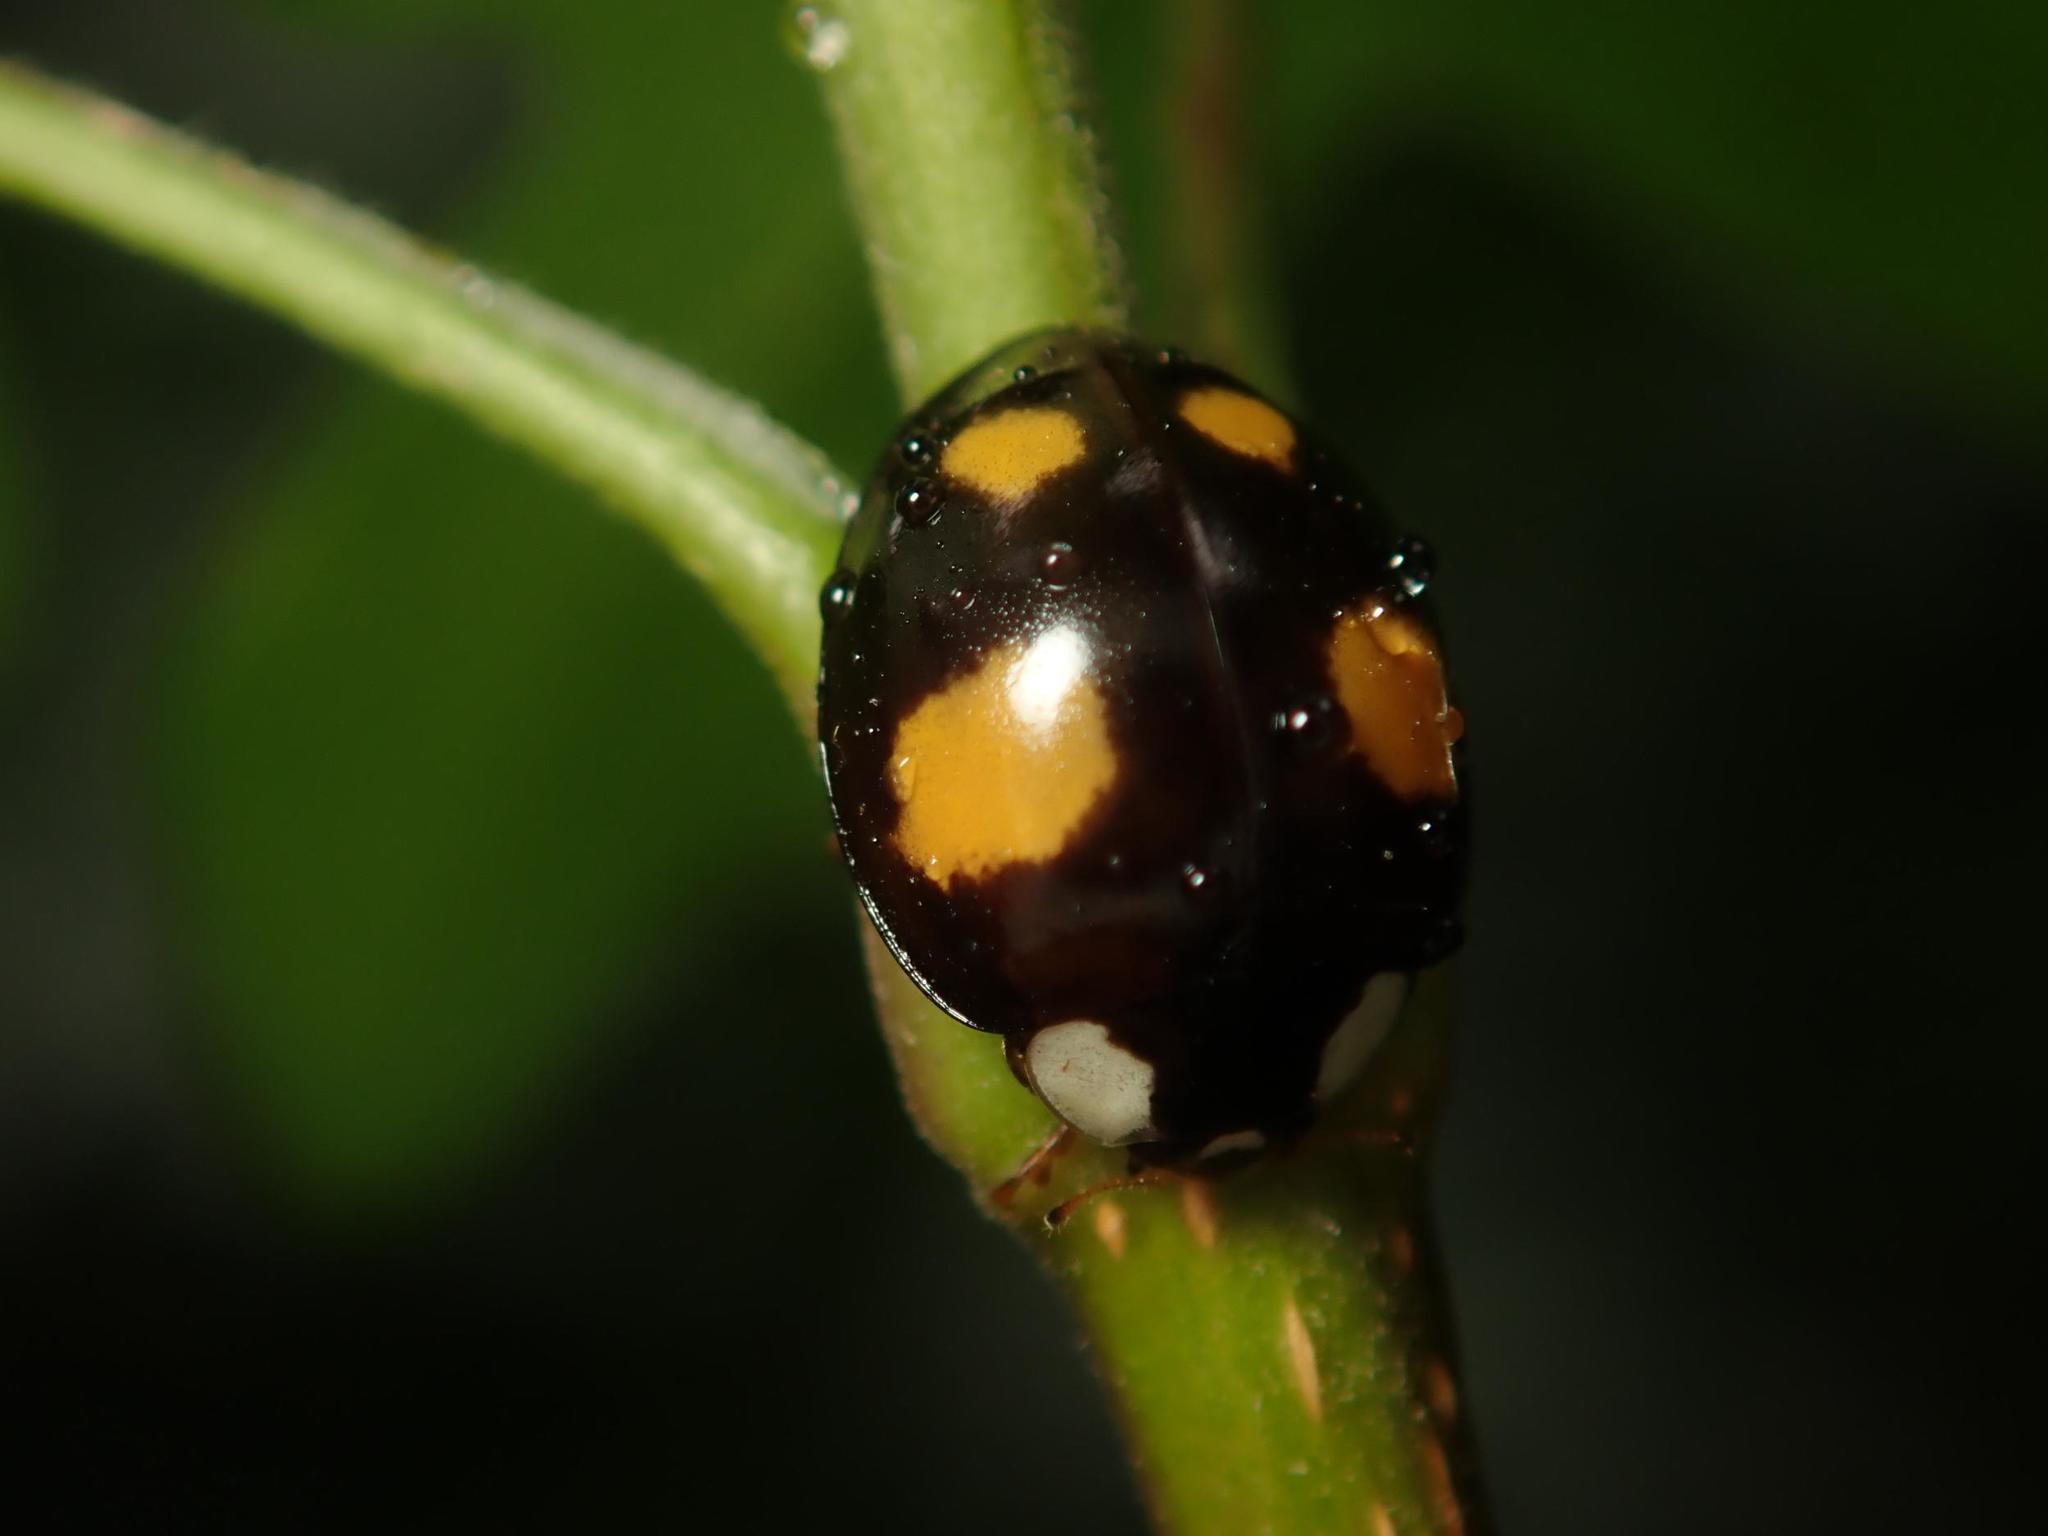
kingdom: Animalia
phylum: Arthropoda
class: Insecta
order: Coleoptera
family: Coccinellidae
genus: Harmonia
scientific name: Harmonia axyridis
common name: Harlequin ladybird
